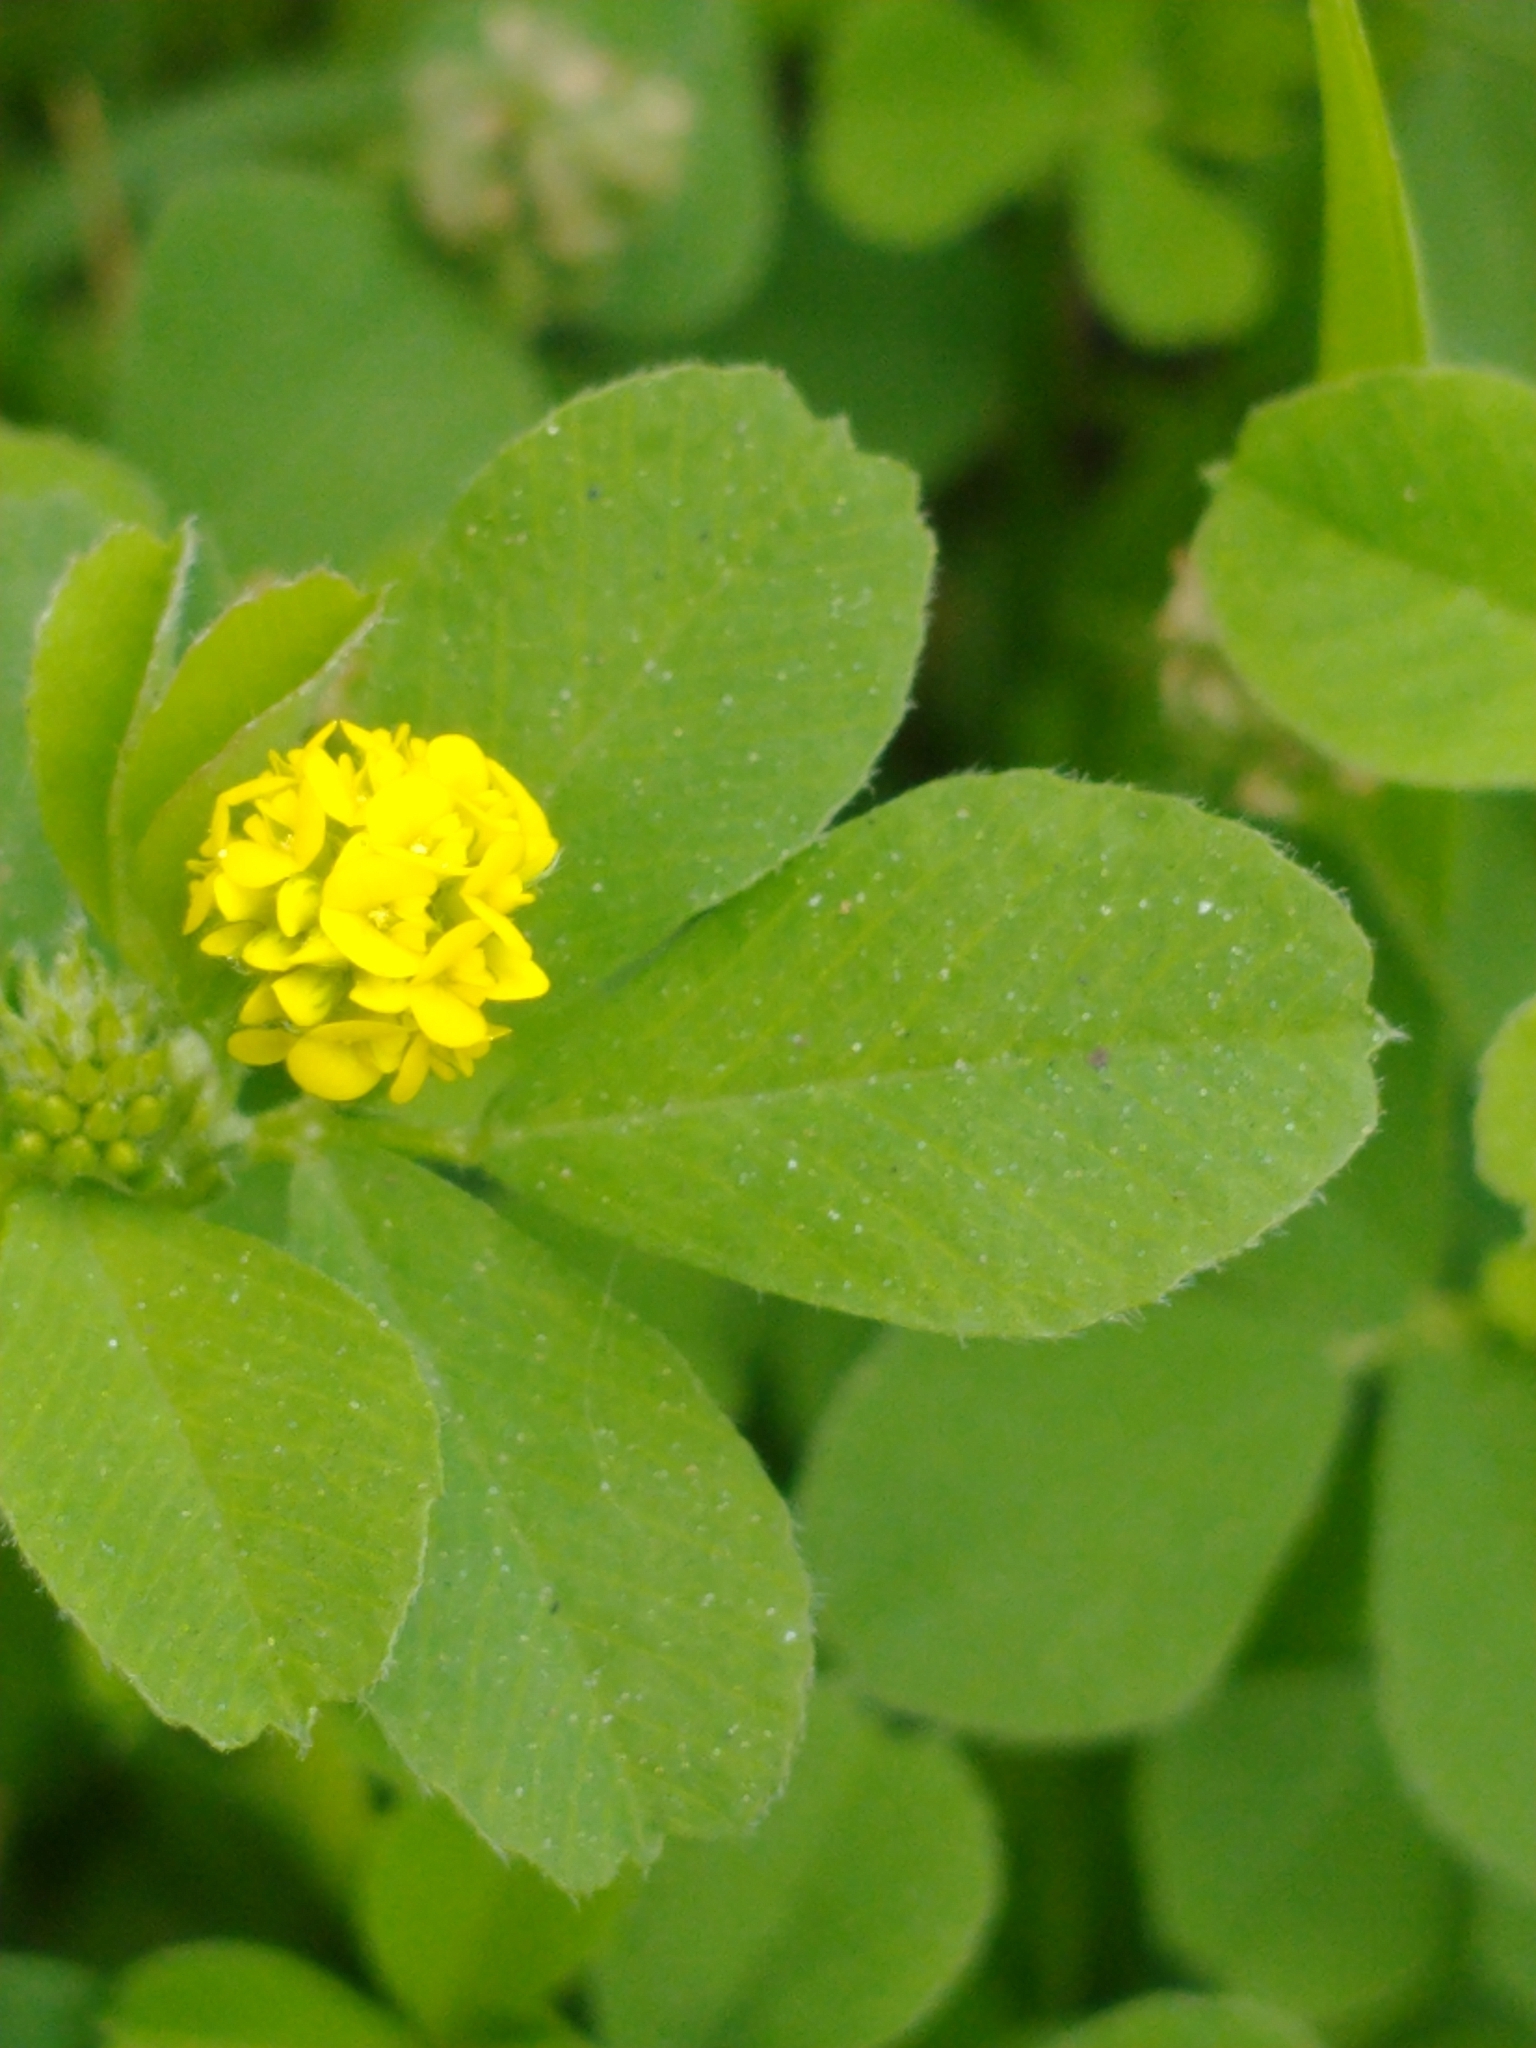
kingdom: Plantae
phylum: Tracheophyta
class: Magnoliopsida
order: Fabales
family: Fabaceae
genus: Medicago
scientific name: Medicago lupulina
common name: Black medick
